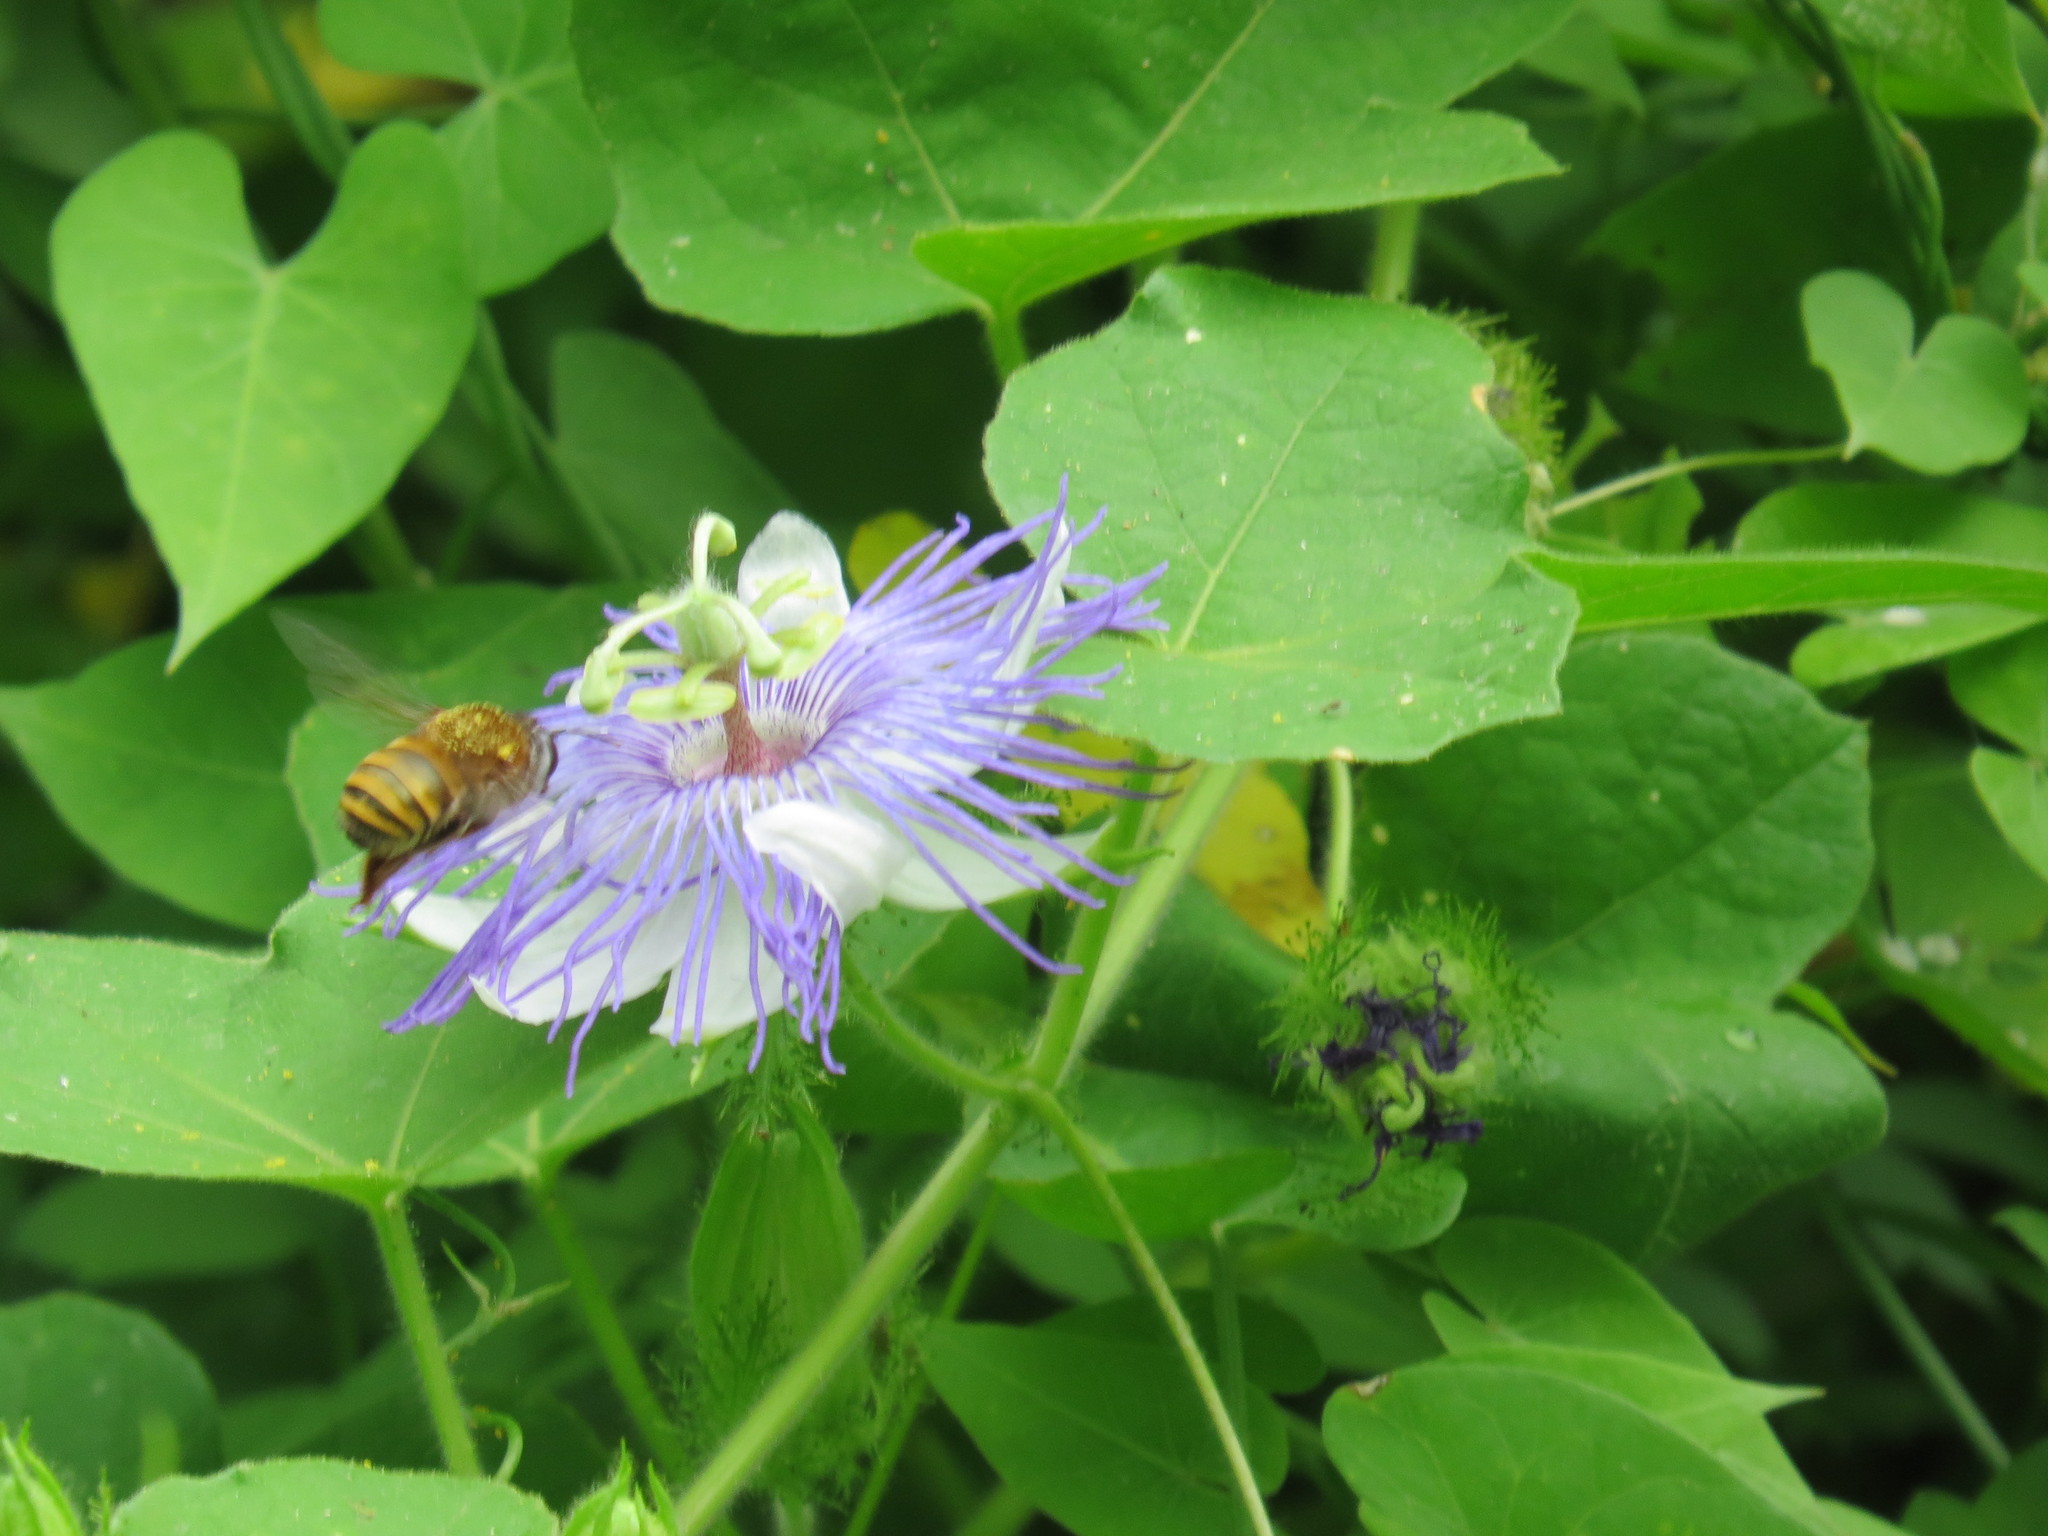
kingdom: Plantae
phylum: Tracheophyta
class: Magnoliopsida
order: Malpighiales
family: Passifloraceae
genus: Passiflora
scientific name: Passiflora foetida
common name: Fetid passionflower
